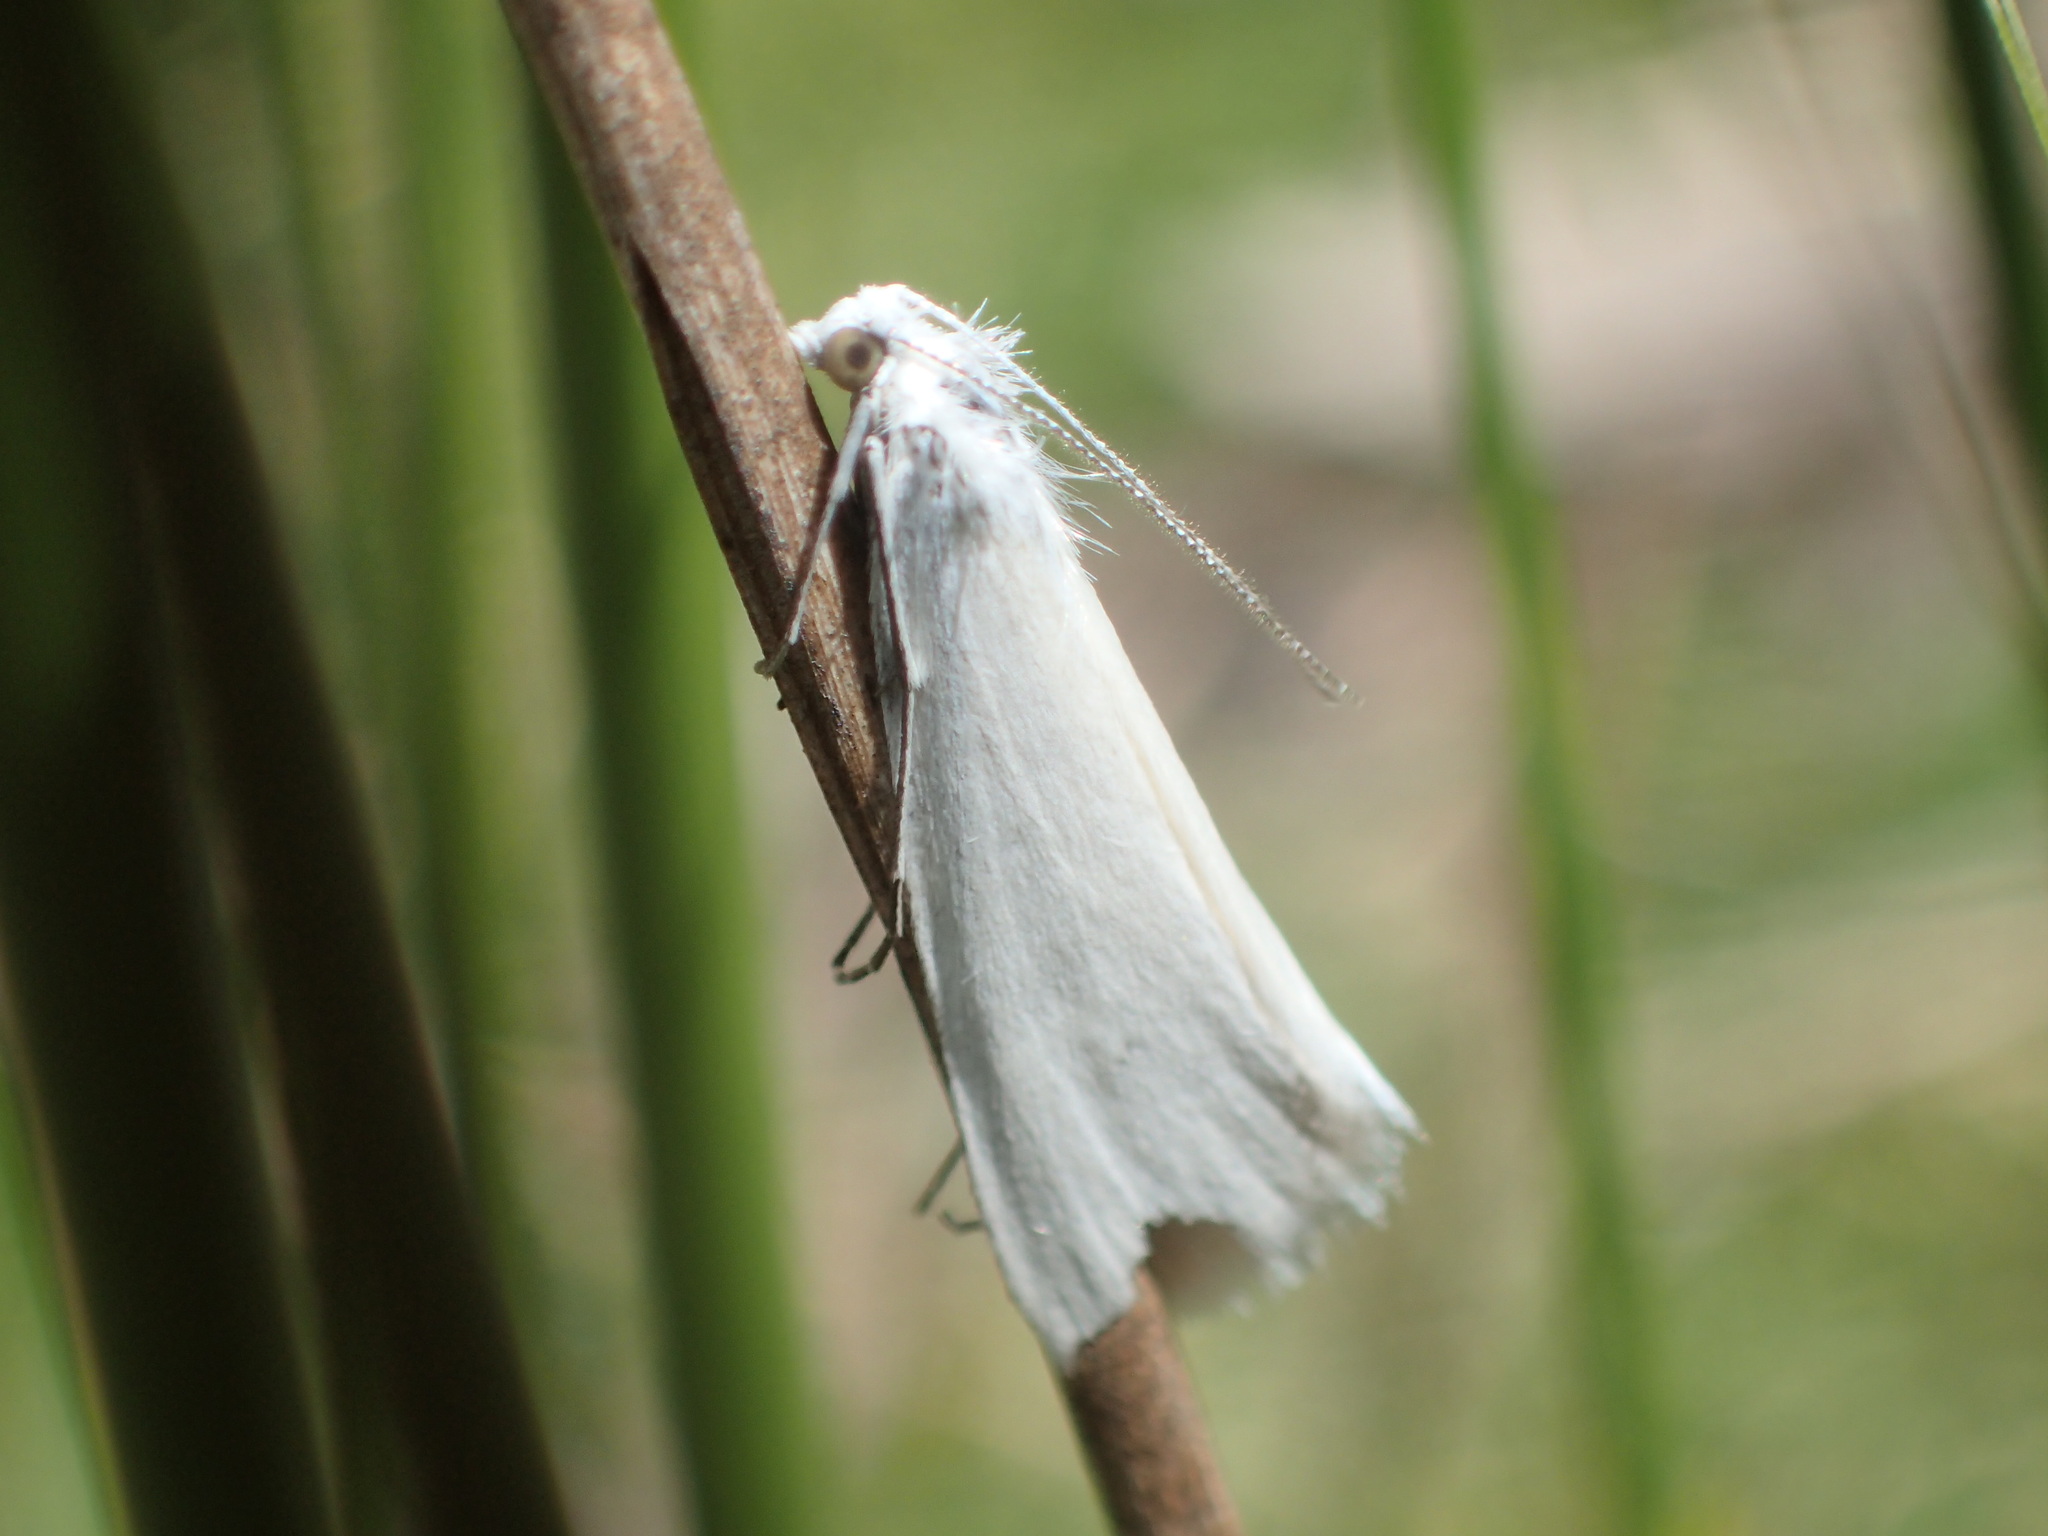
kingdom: Animalia
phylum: Arthropoda
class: Insecta
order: Lepidoptera
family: Crambidae
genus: Tipanaea
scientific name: Tipanaea patulella
